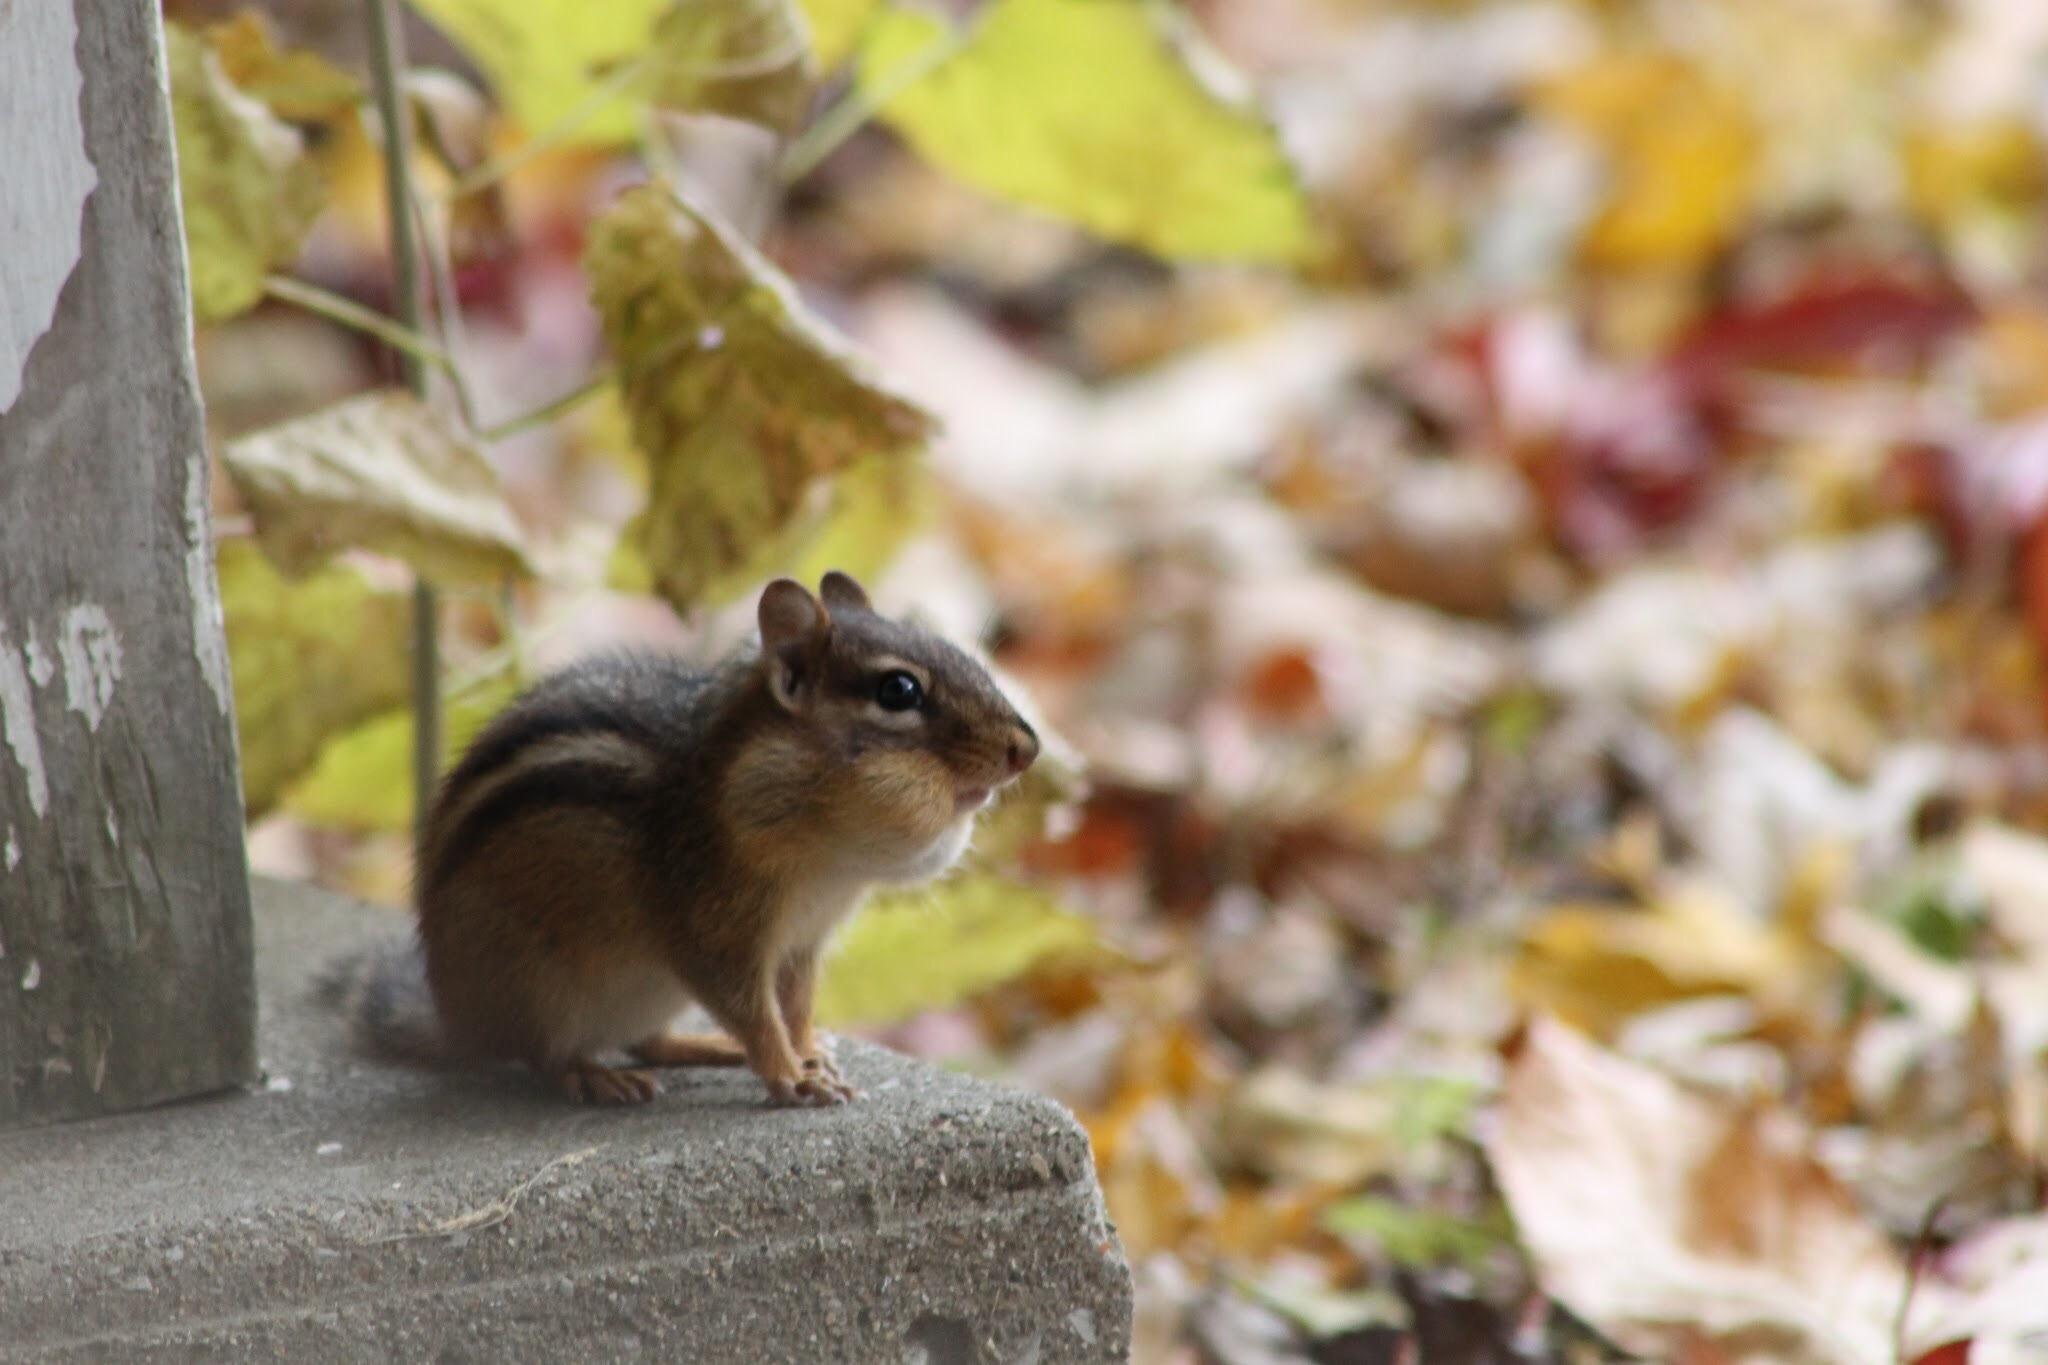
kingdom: Animalia
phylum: Chordata
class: Mammalia
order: Rodentia
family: Sciuridae
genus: Tamias
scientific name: Tamias striatus
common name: Eastern chipmunk
